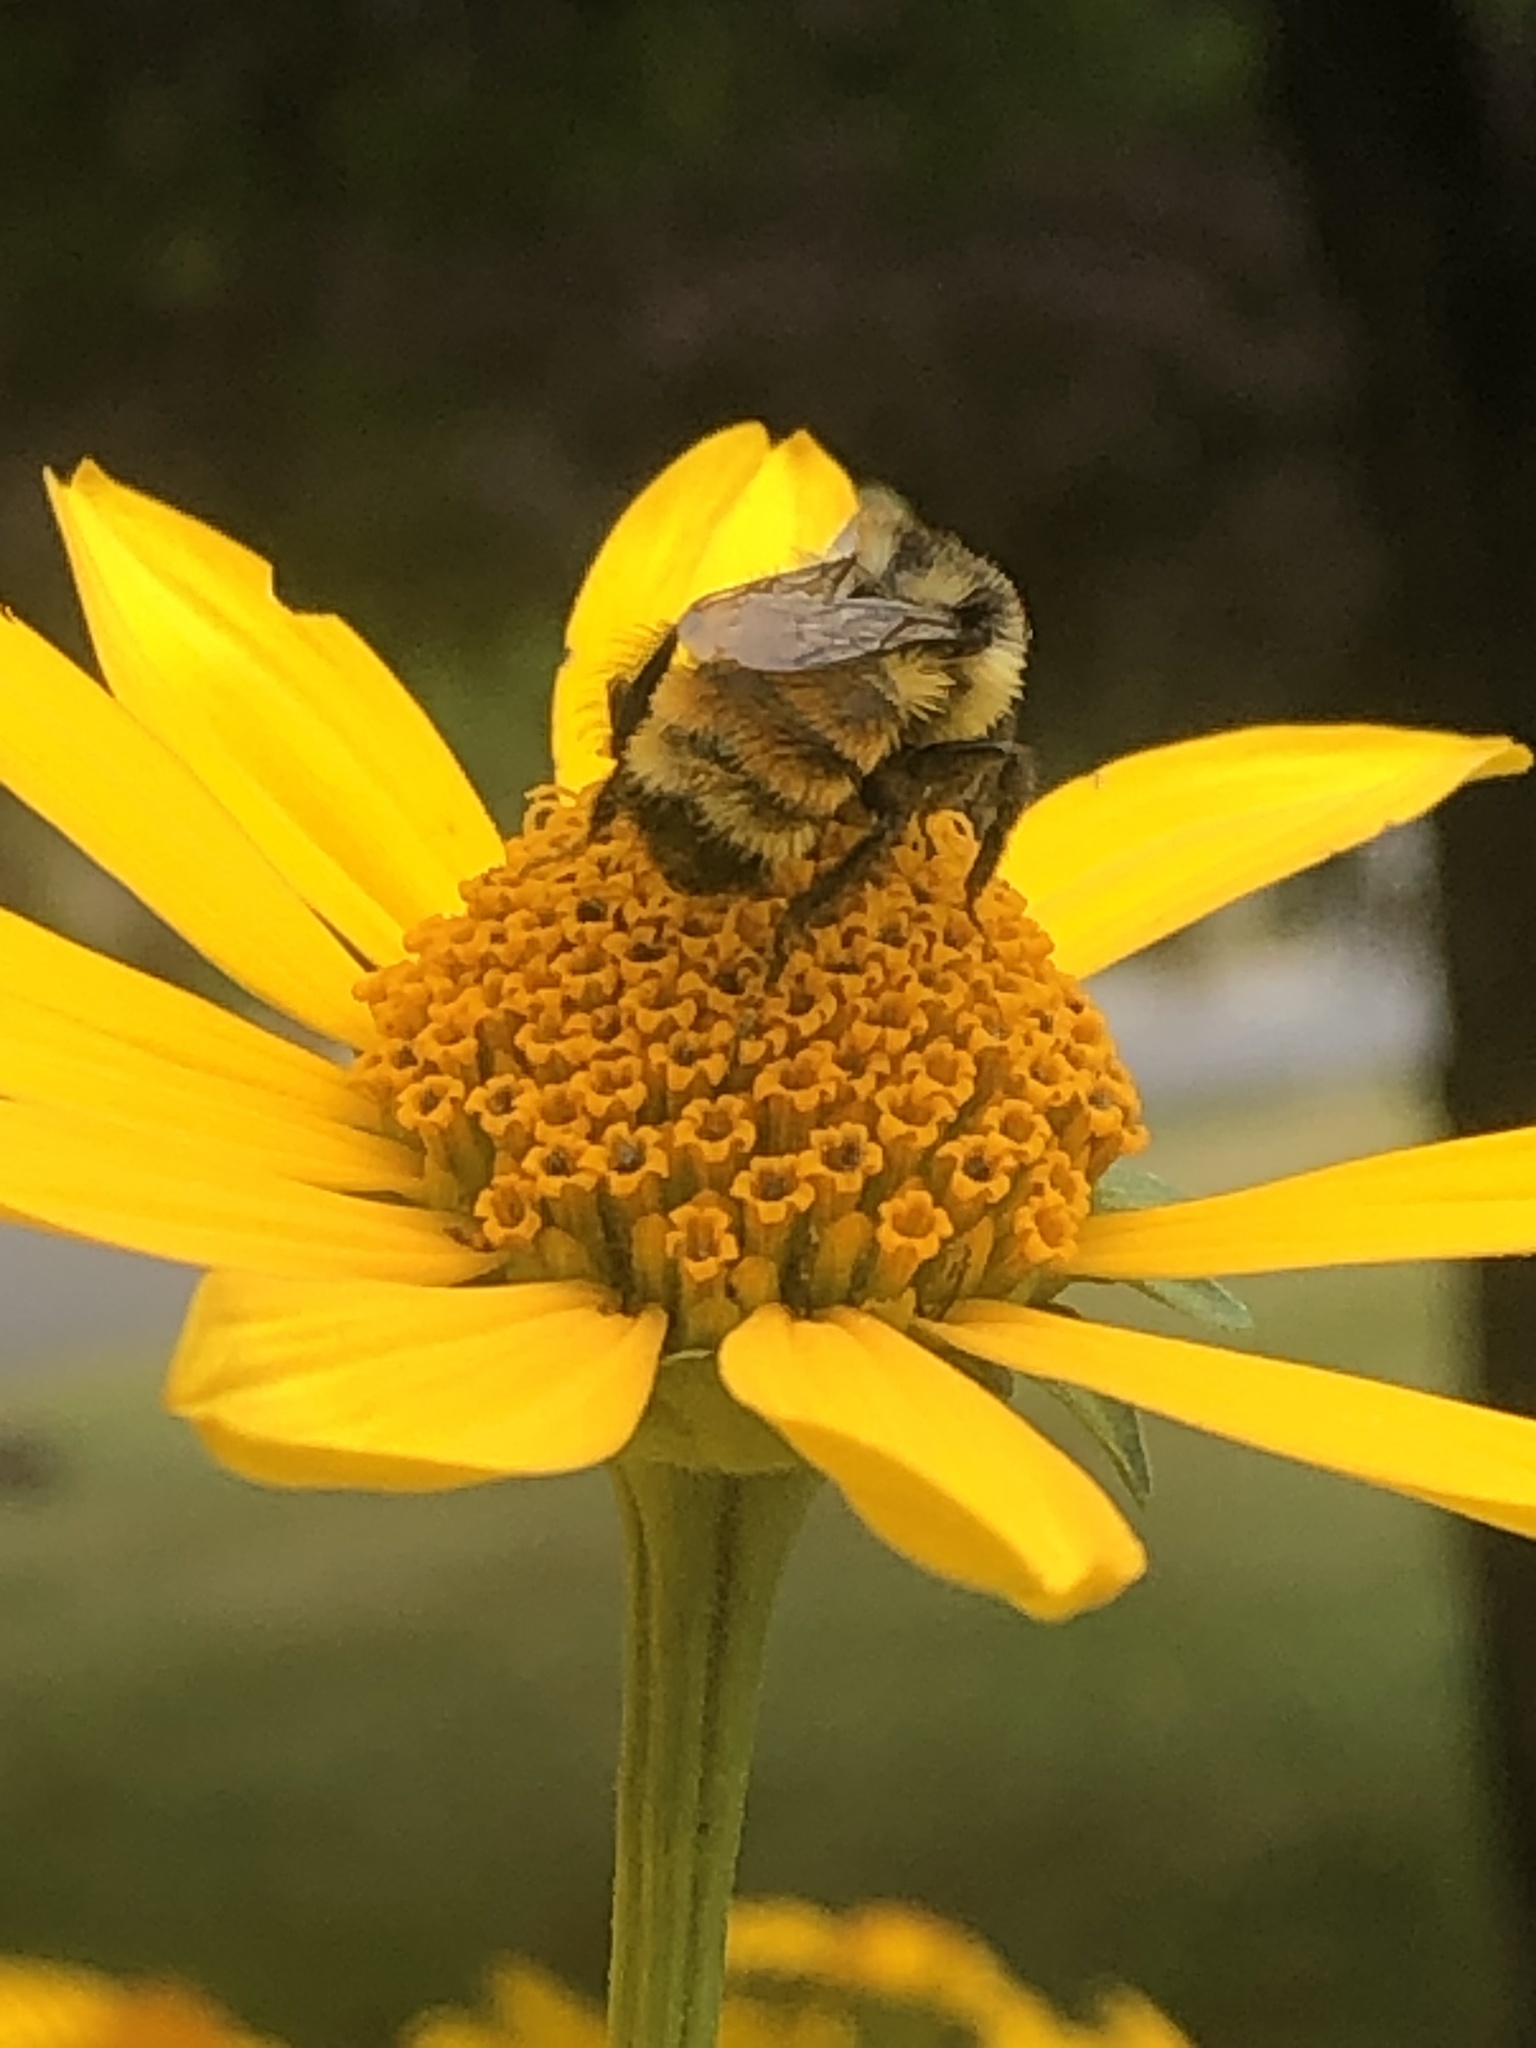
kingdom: Animalia
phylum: Arthropoda
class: Insecta
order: Hymenoptera
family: Apidae
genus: Bombus
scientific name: Bombus ternarius
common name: Tri-colored bumble bee
